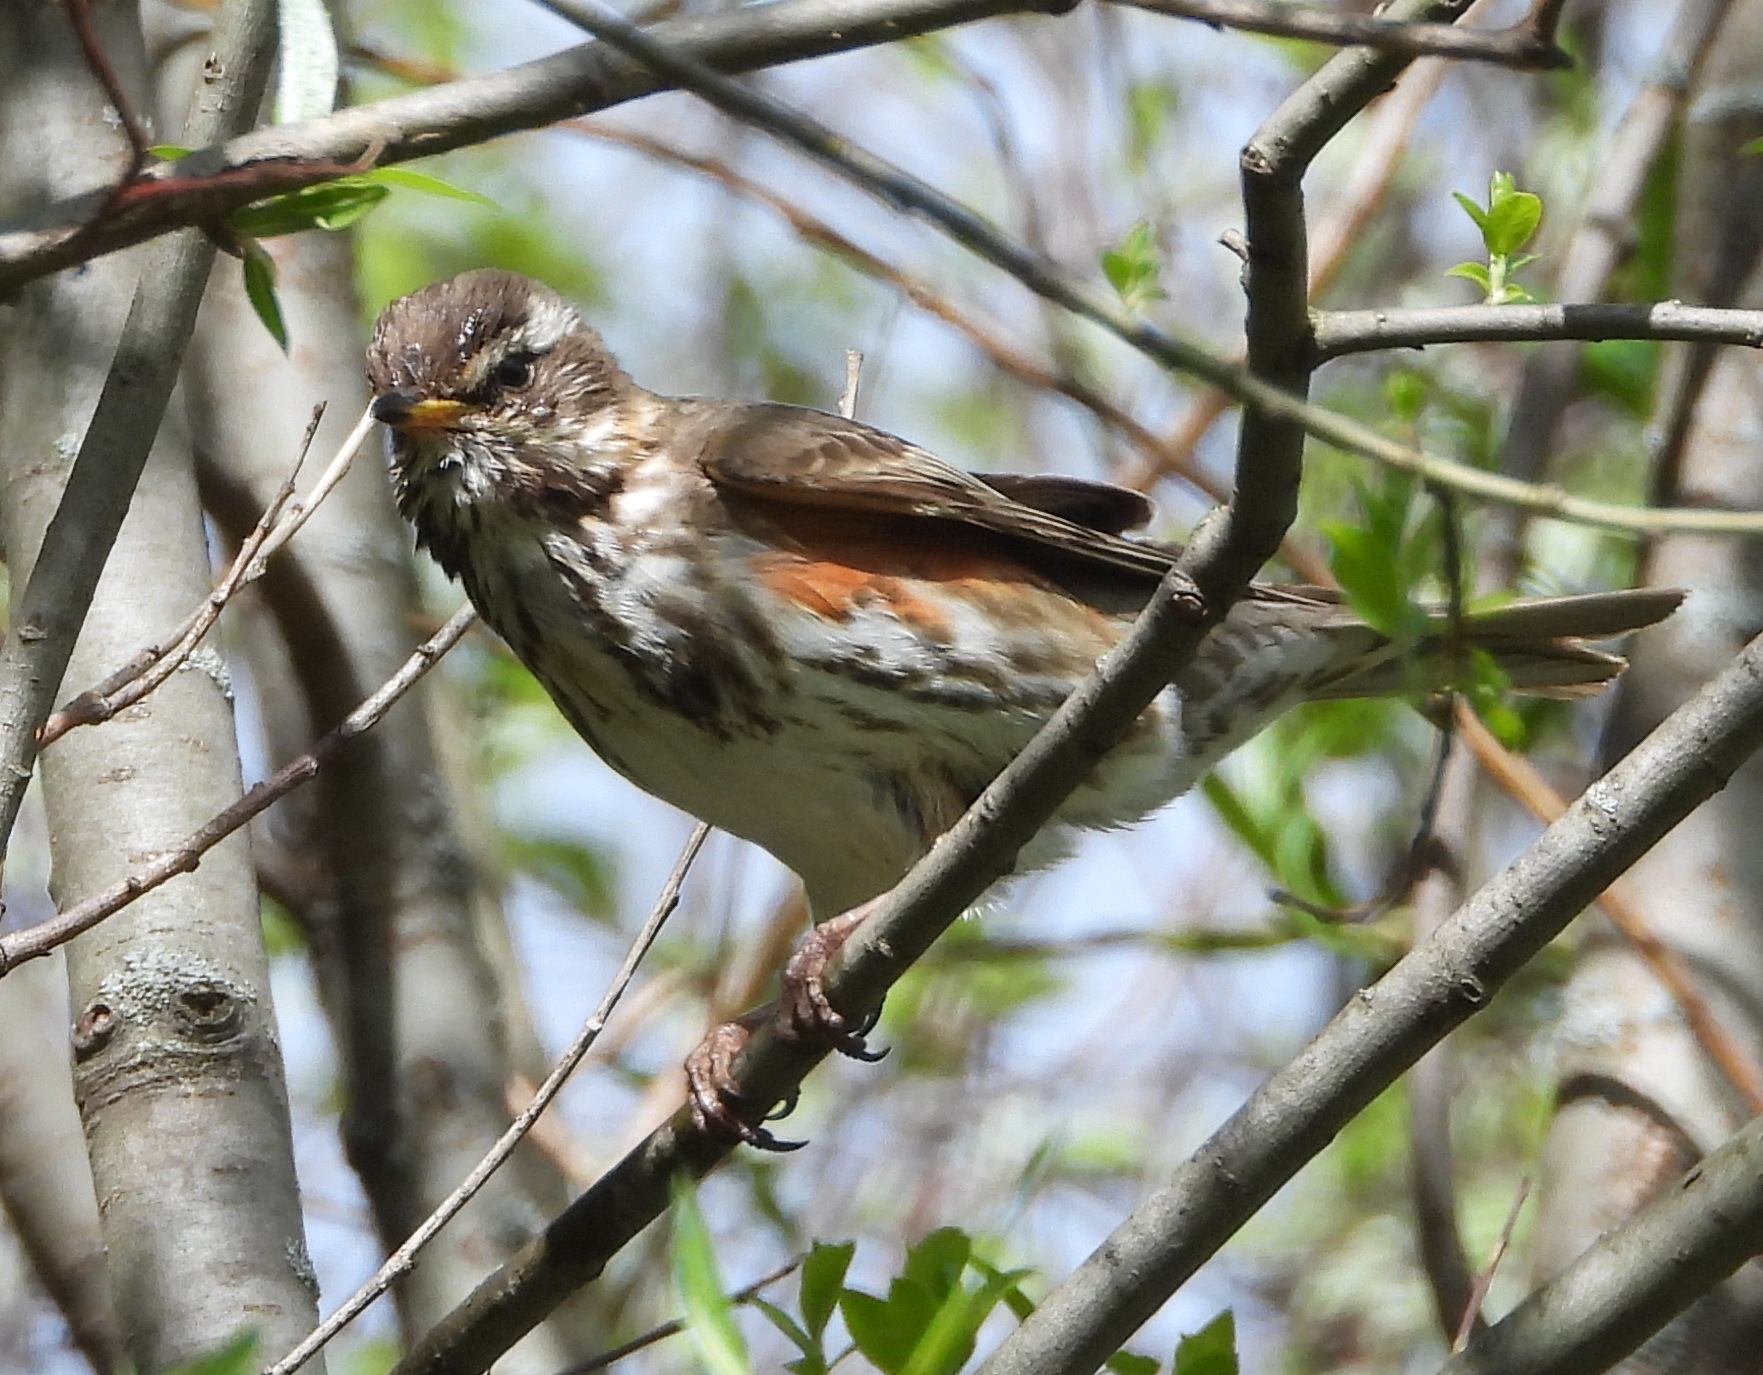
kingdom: Animalia
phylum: Chordata
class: Aves
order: Passeriformes
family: Turdidae
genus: Turdus
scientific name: Turdus iliacus
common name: Redwing
